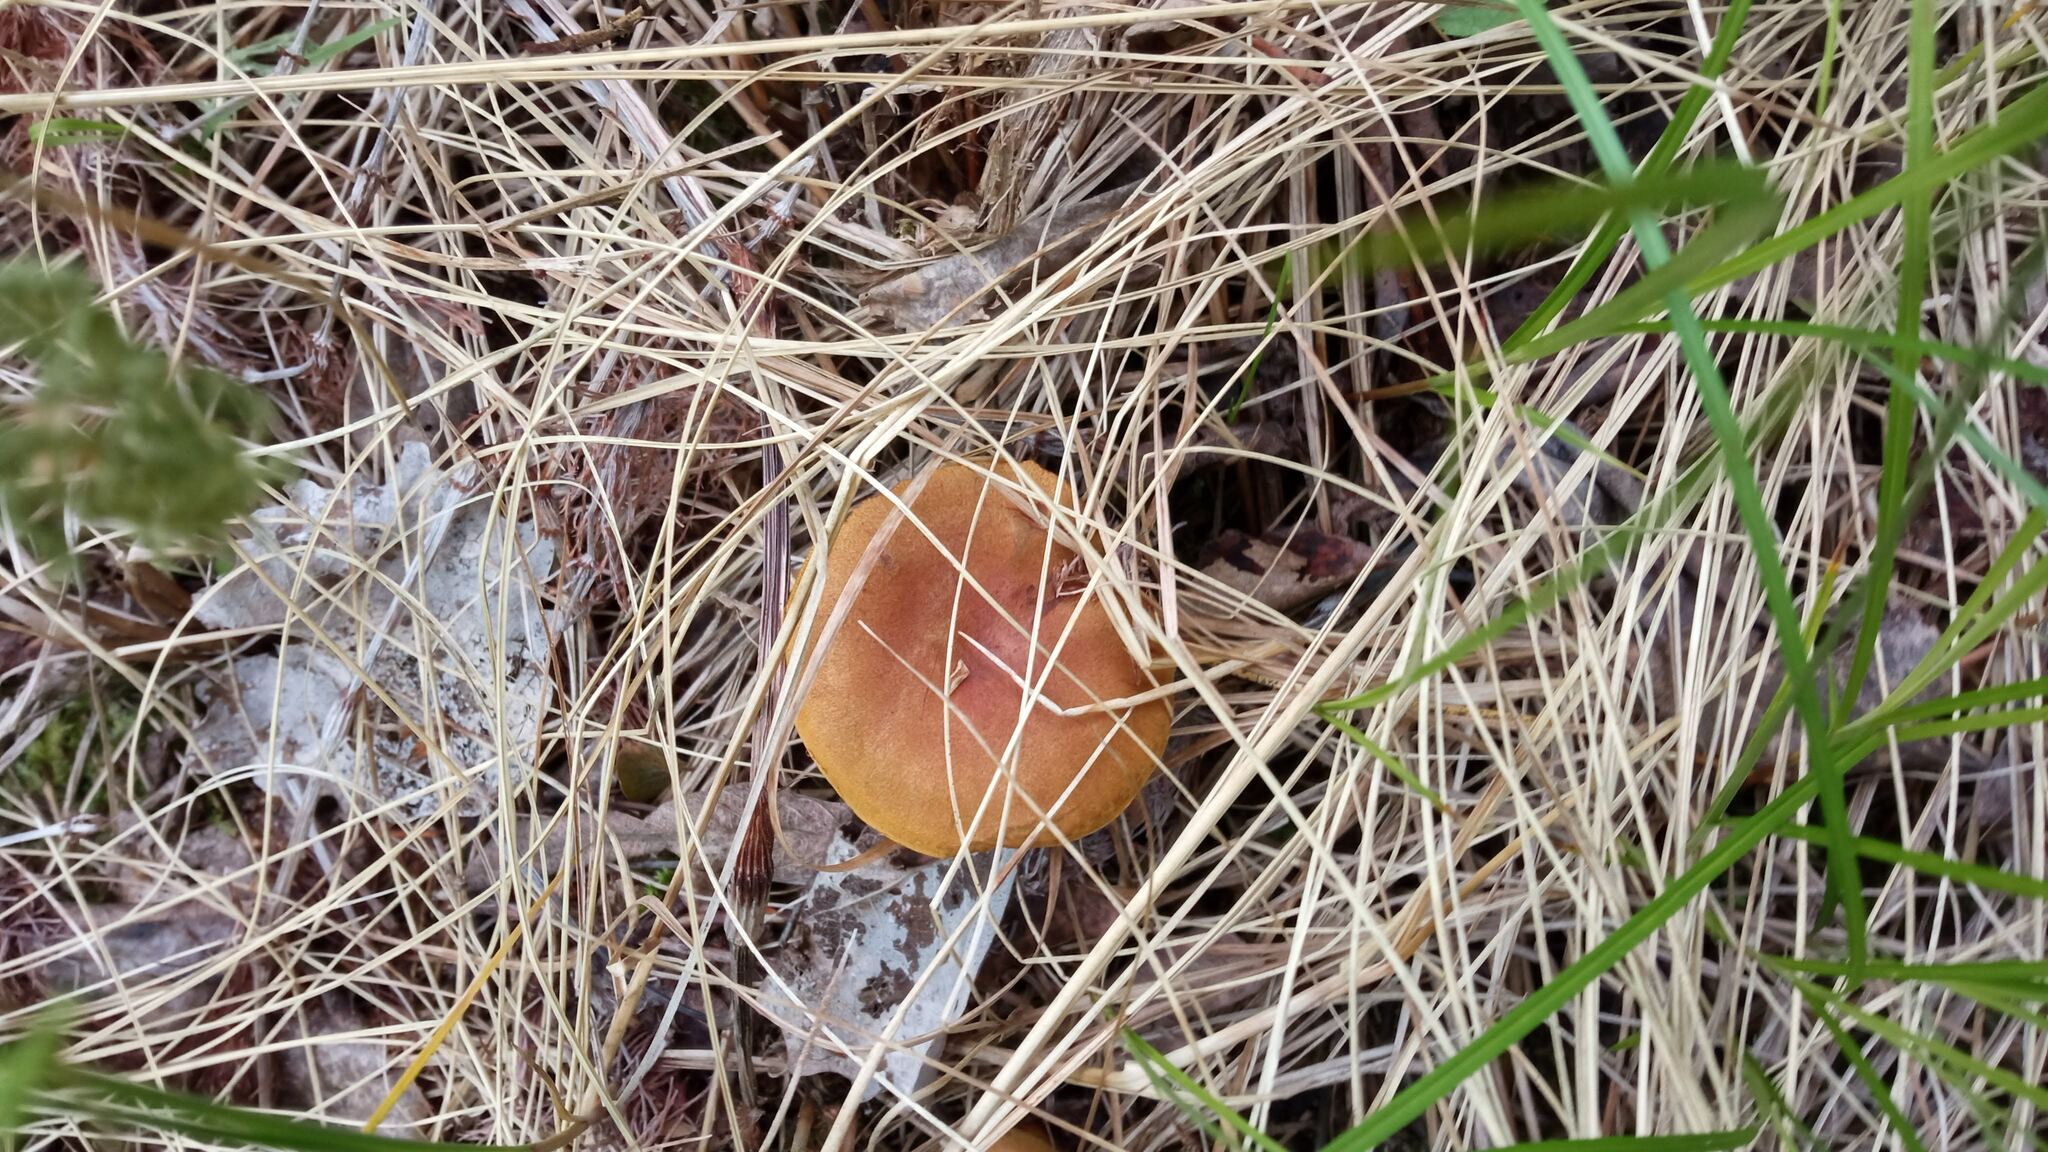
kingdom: Fungi
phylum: Basidiomycota
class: Agaricomycetes
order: Agaricales
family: Cortinariaceae
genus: Cortinarius
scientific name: Cortinarius malicorius
